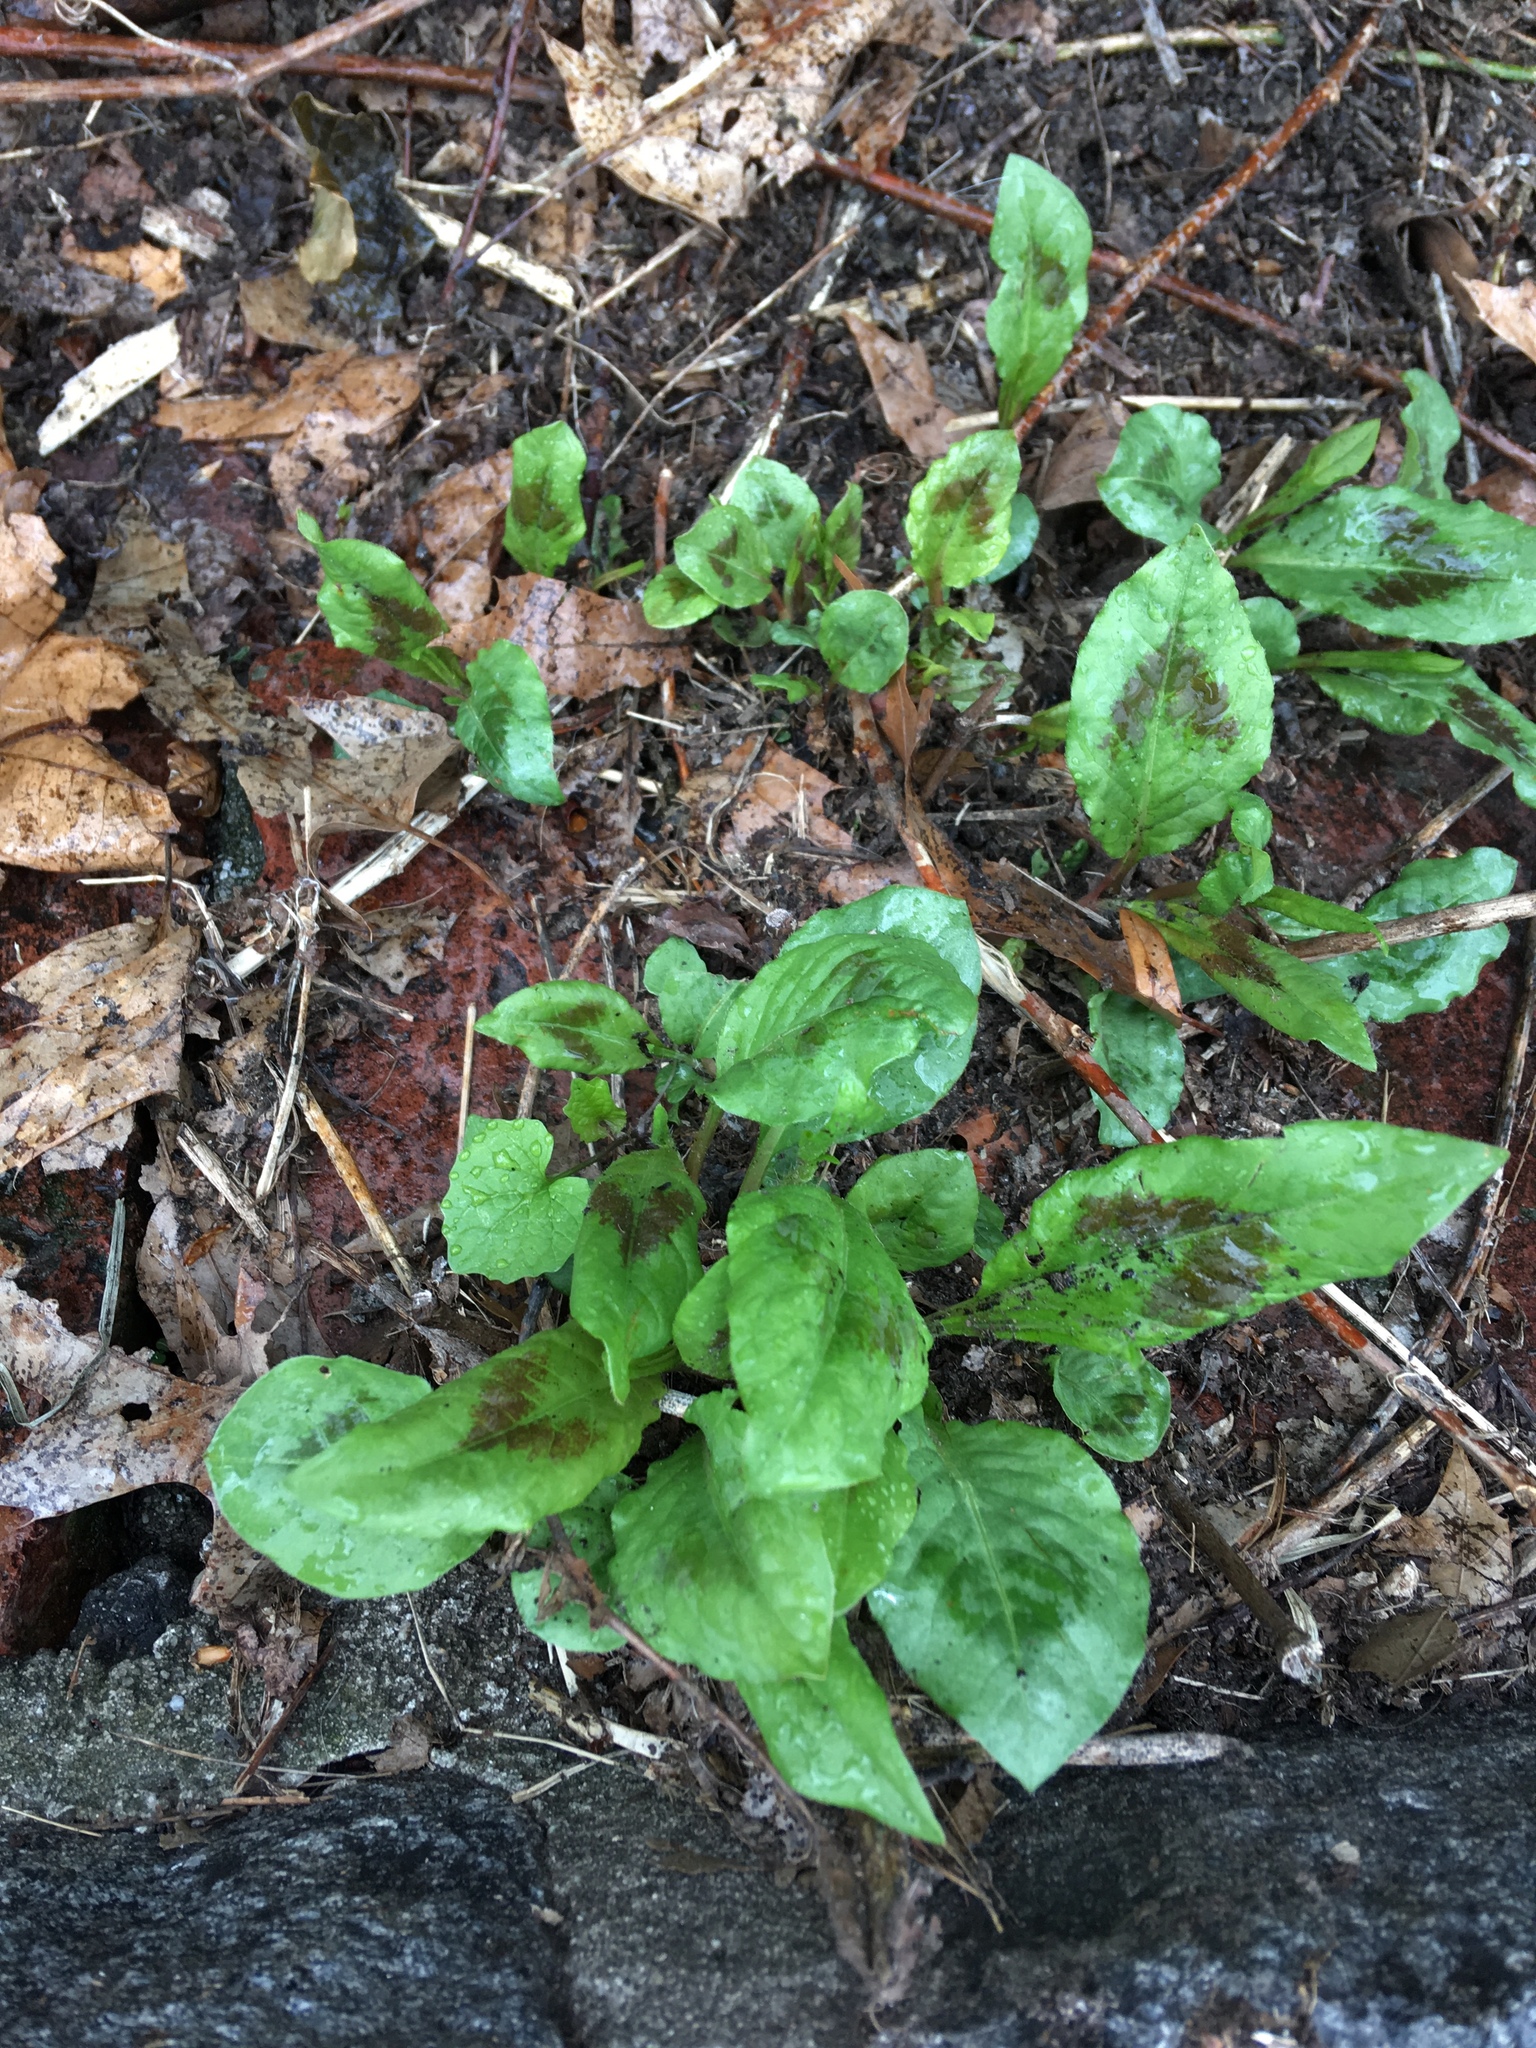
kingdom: Plantae
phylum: Tracheophyta
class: Magnoliopsida
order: Caryophyllales
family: Polygonaceae
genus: Persicaria
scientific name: Persicaria virginiana
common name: Jumpseed
